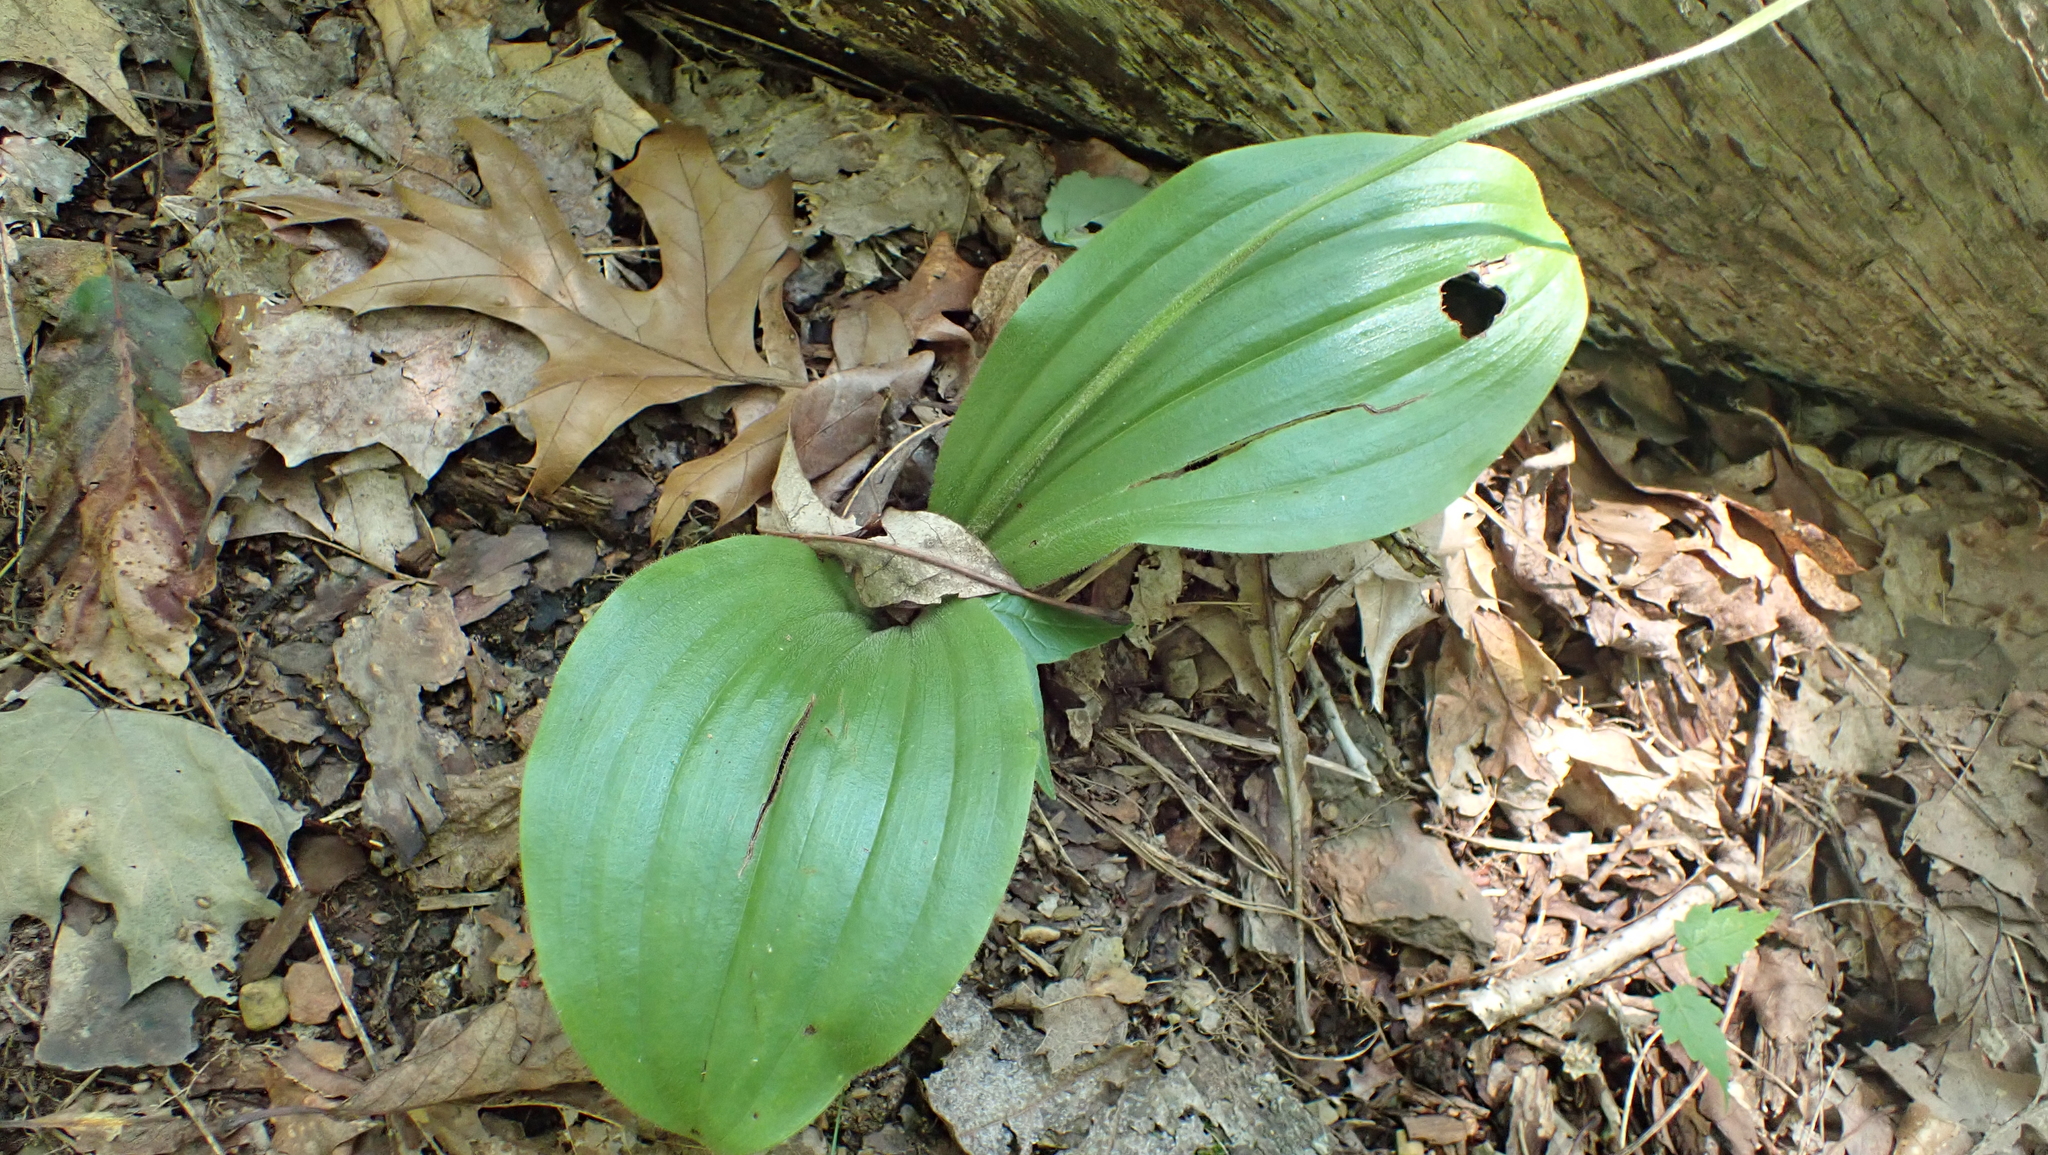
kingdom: Plantae
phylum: Tracheophyta
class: Liliopsida
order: Asparagales
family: Orchidaceae
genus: Cypripedium
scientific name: Cypripedium acaule
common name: Pink lady's-slipper
